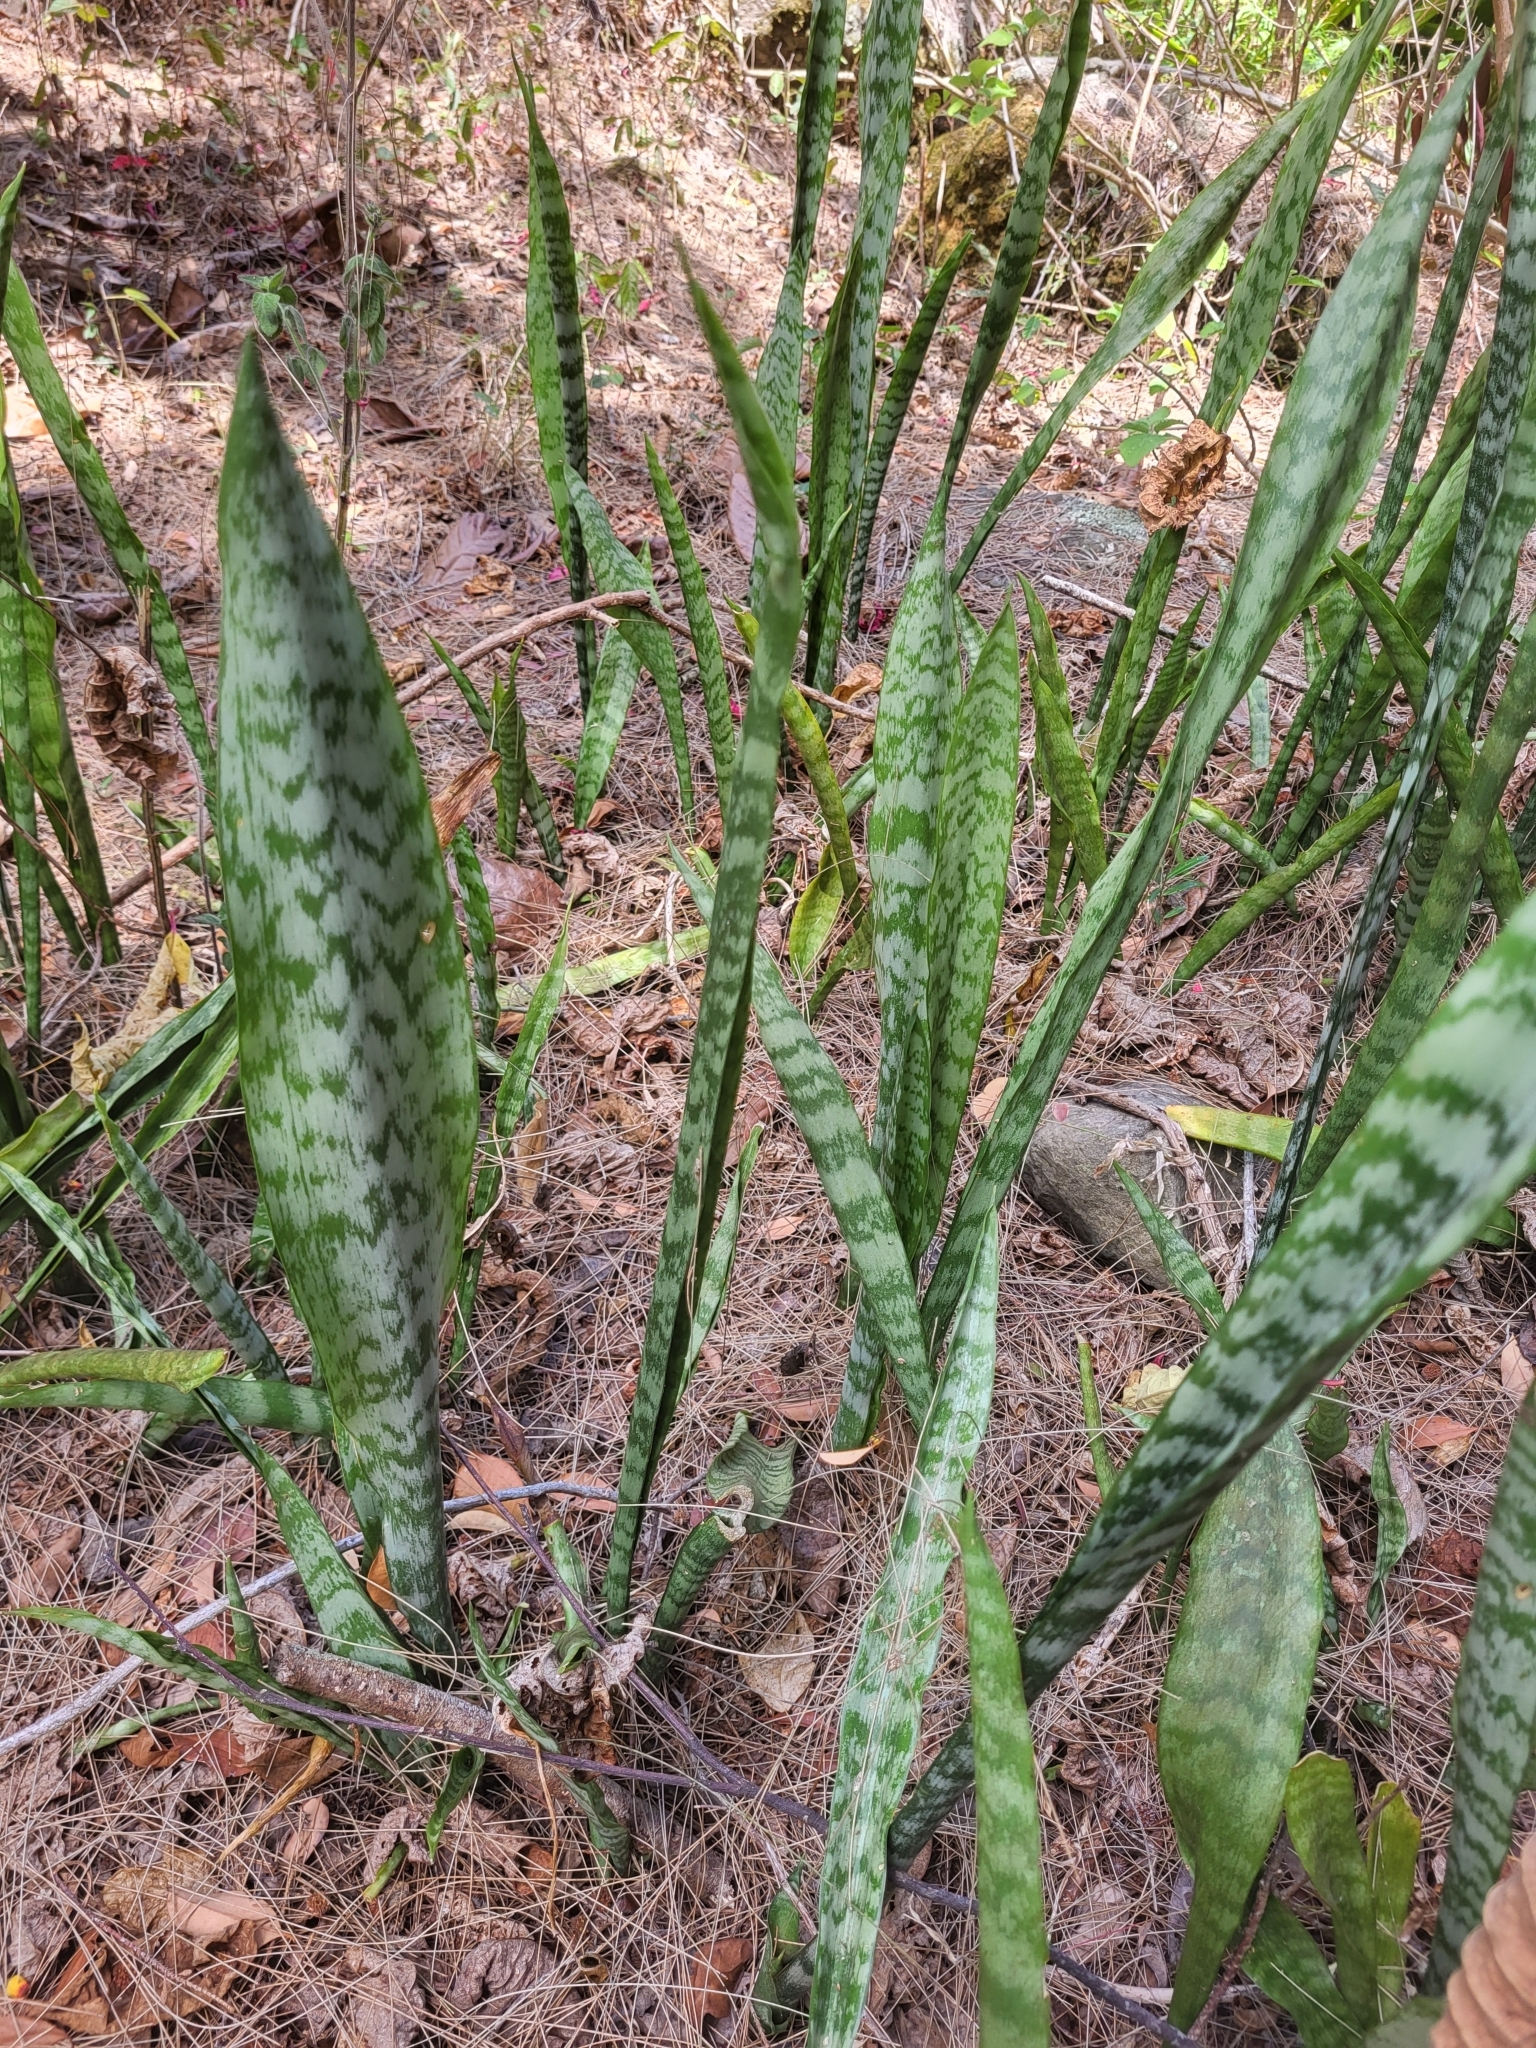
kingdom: Plantae
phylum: Tracheophyta
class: Liliopsida
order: Asparagales
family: Asparagaceae
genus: Dracaena
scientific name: Dracaena trifasciata
